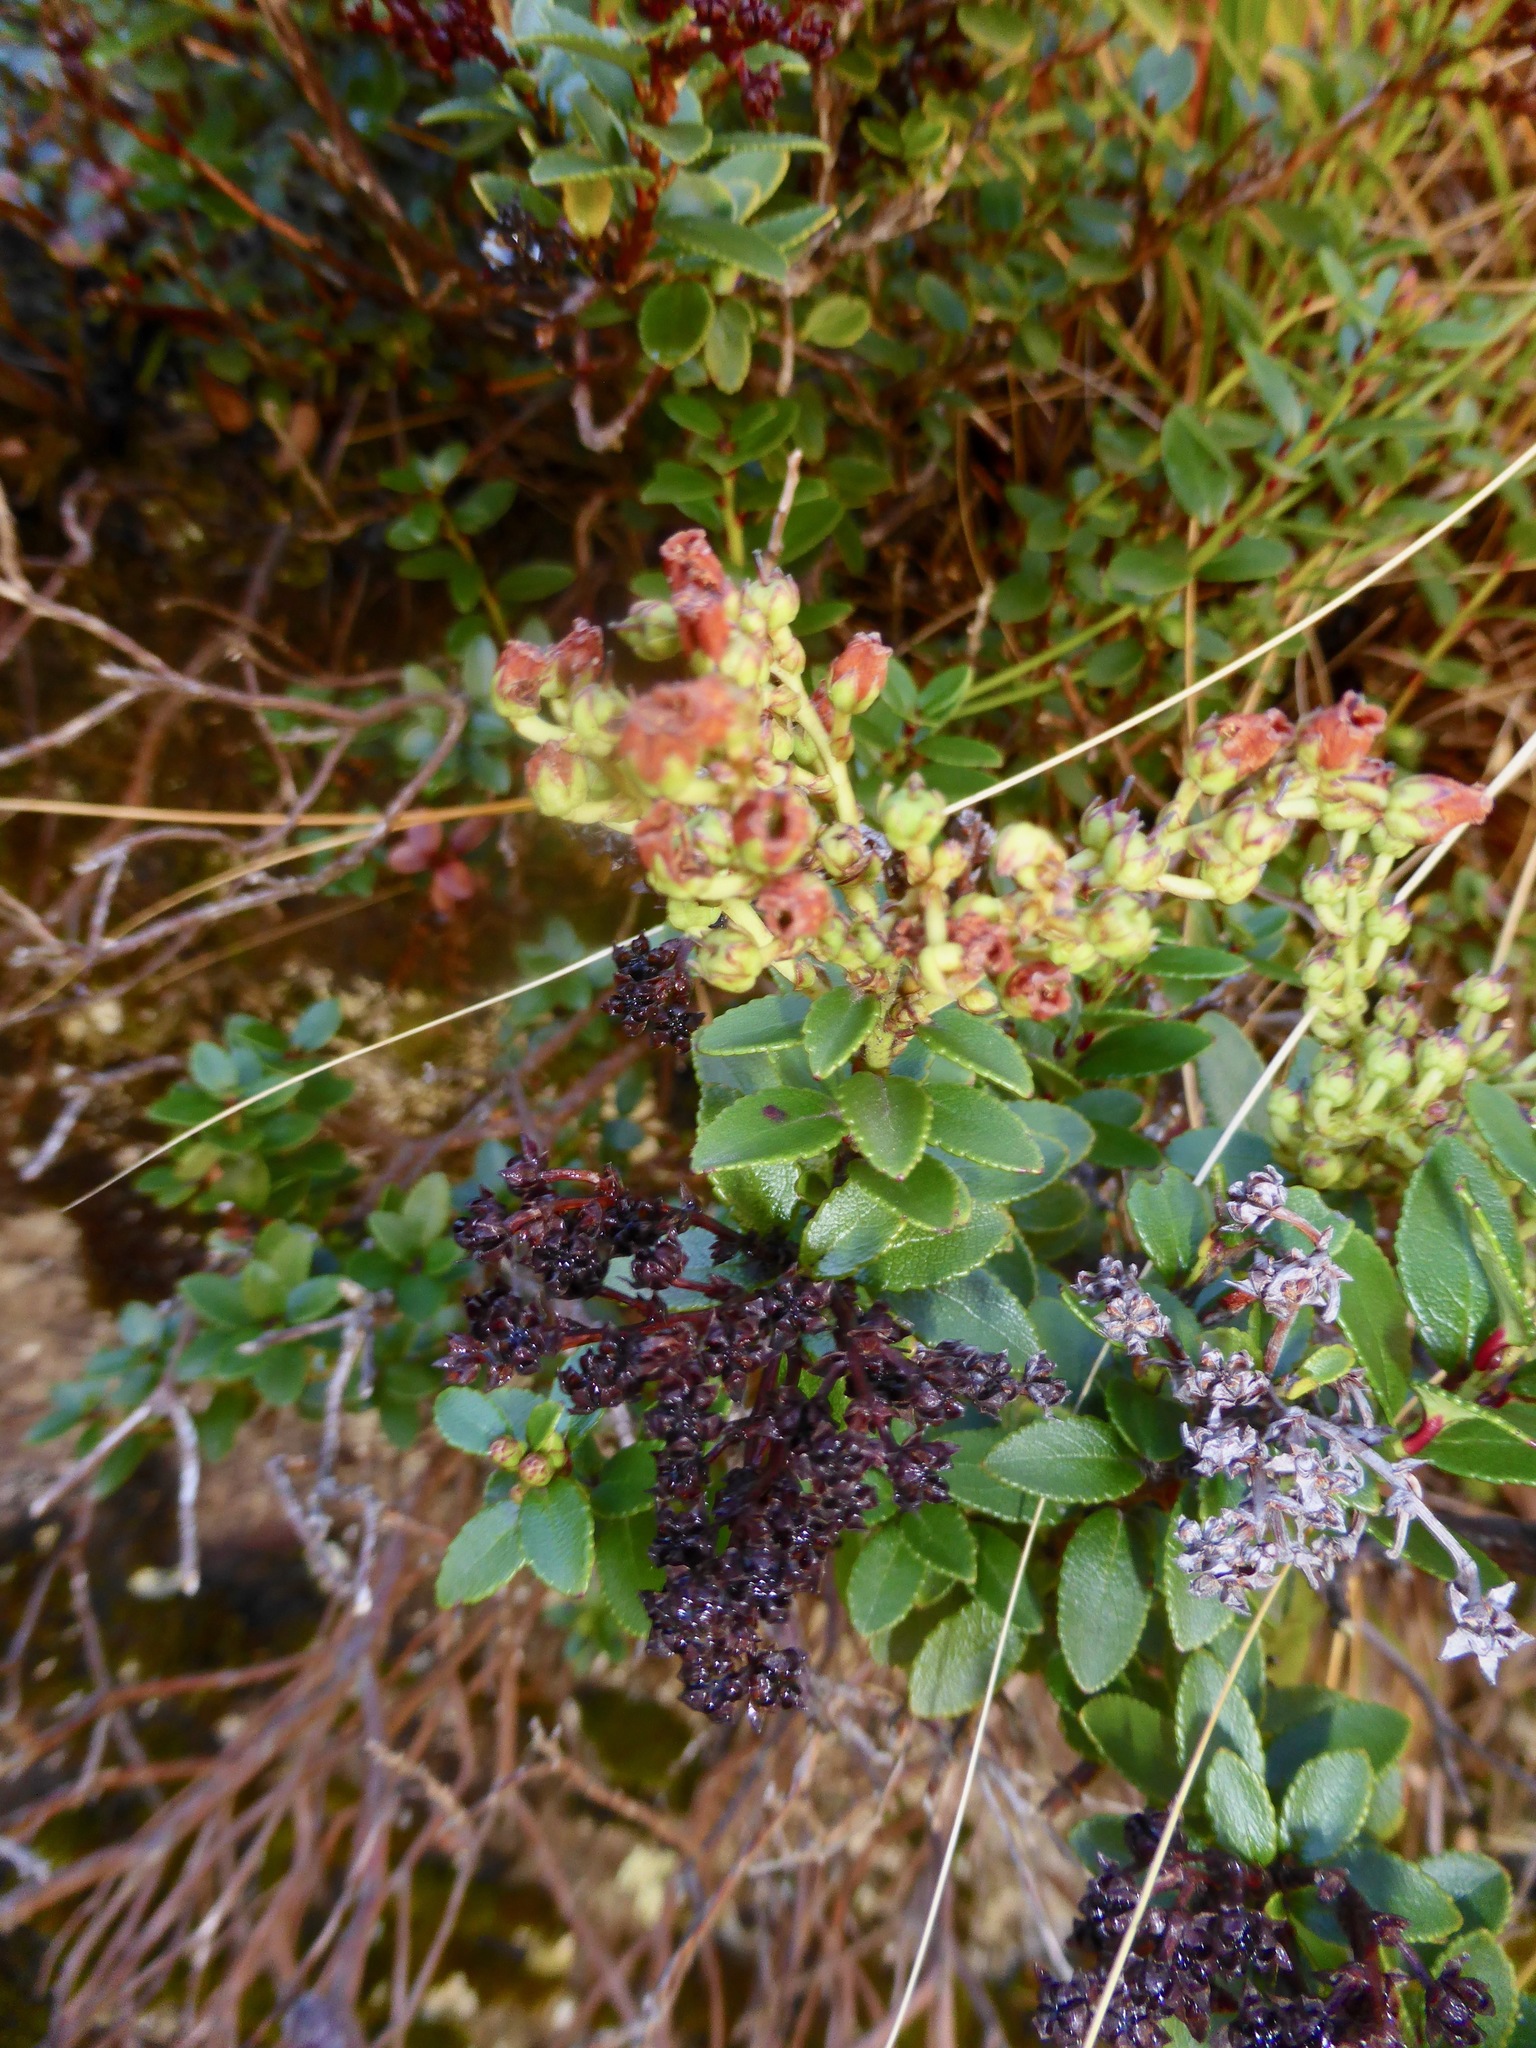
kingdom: Plantae
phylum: Tracheophyta
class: Magnoliopsida
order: Ericales
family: Ericaceae
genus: Gaultheria
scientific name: Gaultheria crassa
